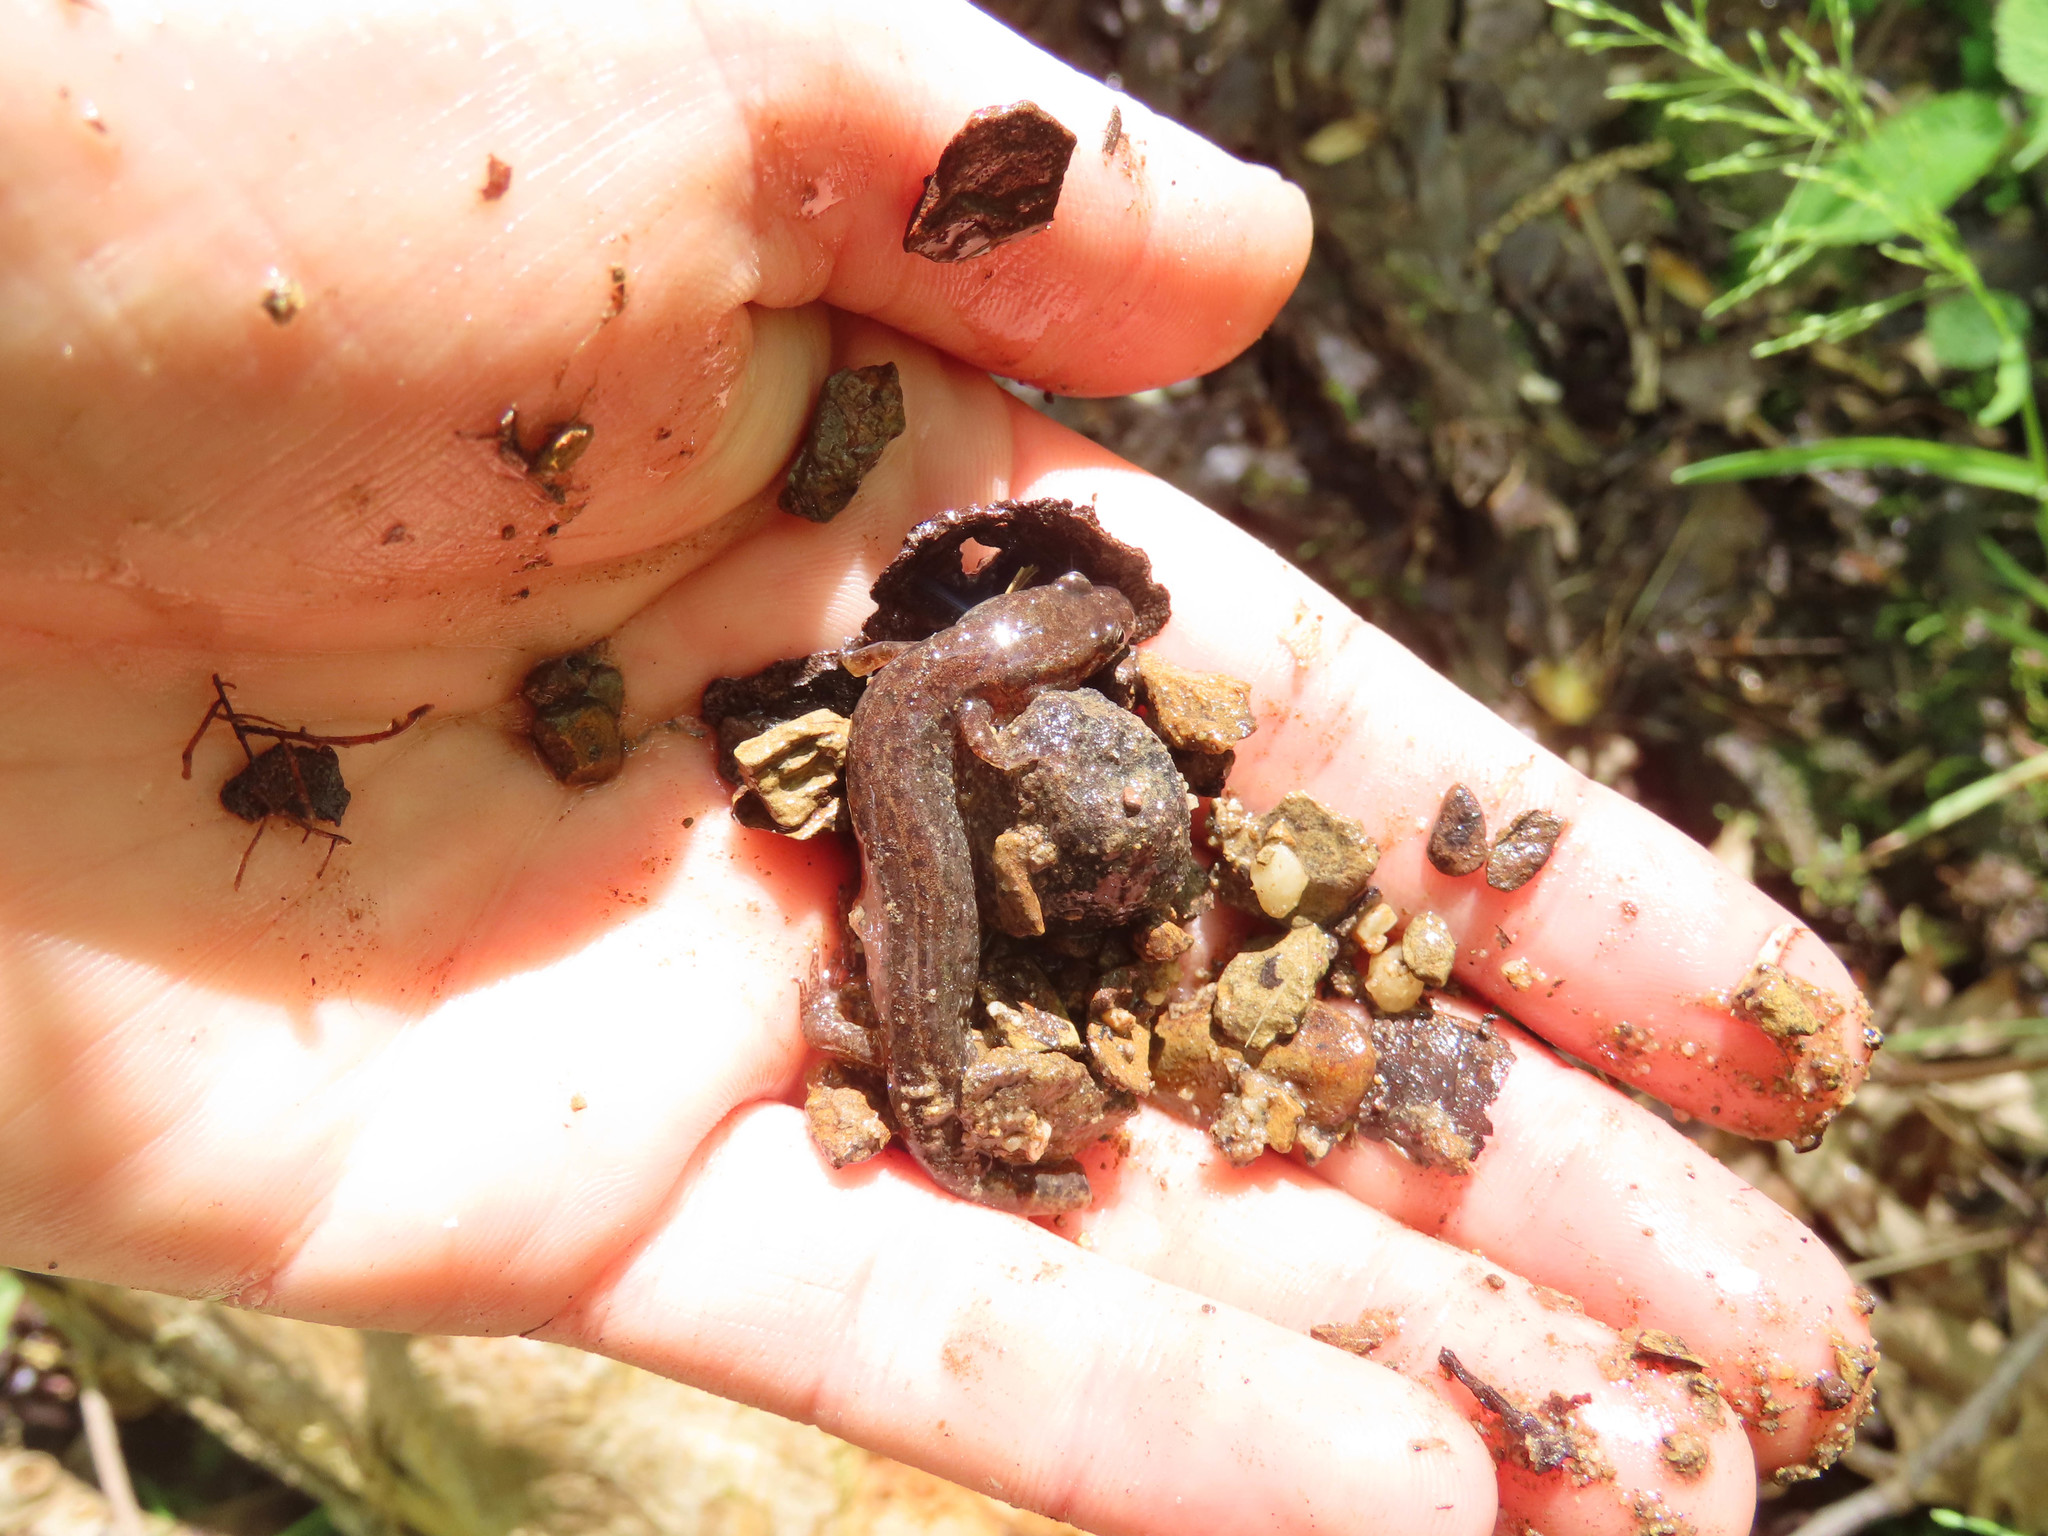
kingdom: Animalia
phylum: Chordata
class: Amphibia
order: Caudata
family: Plethodontidae
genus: Desmognathus
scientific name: Desmognathus fuscus
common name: Northern dusky salamander
